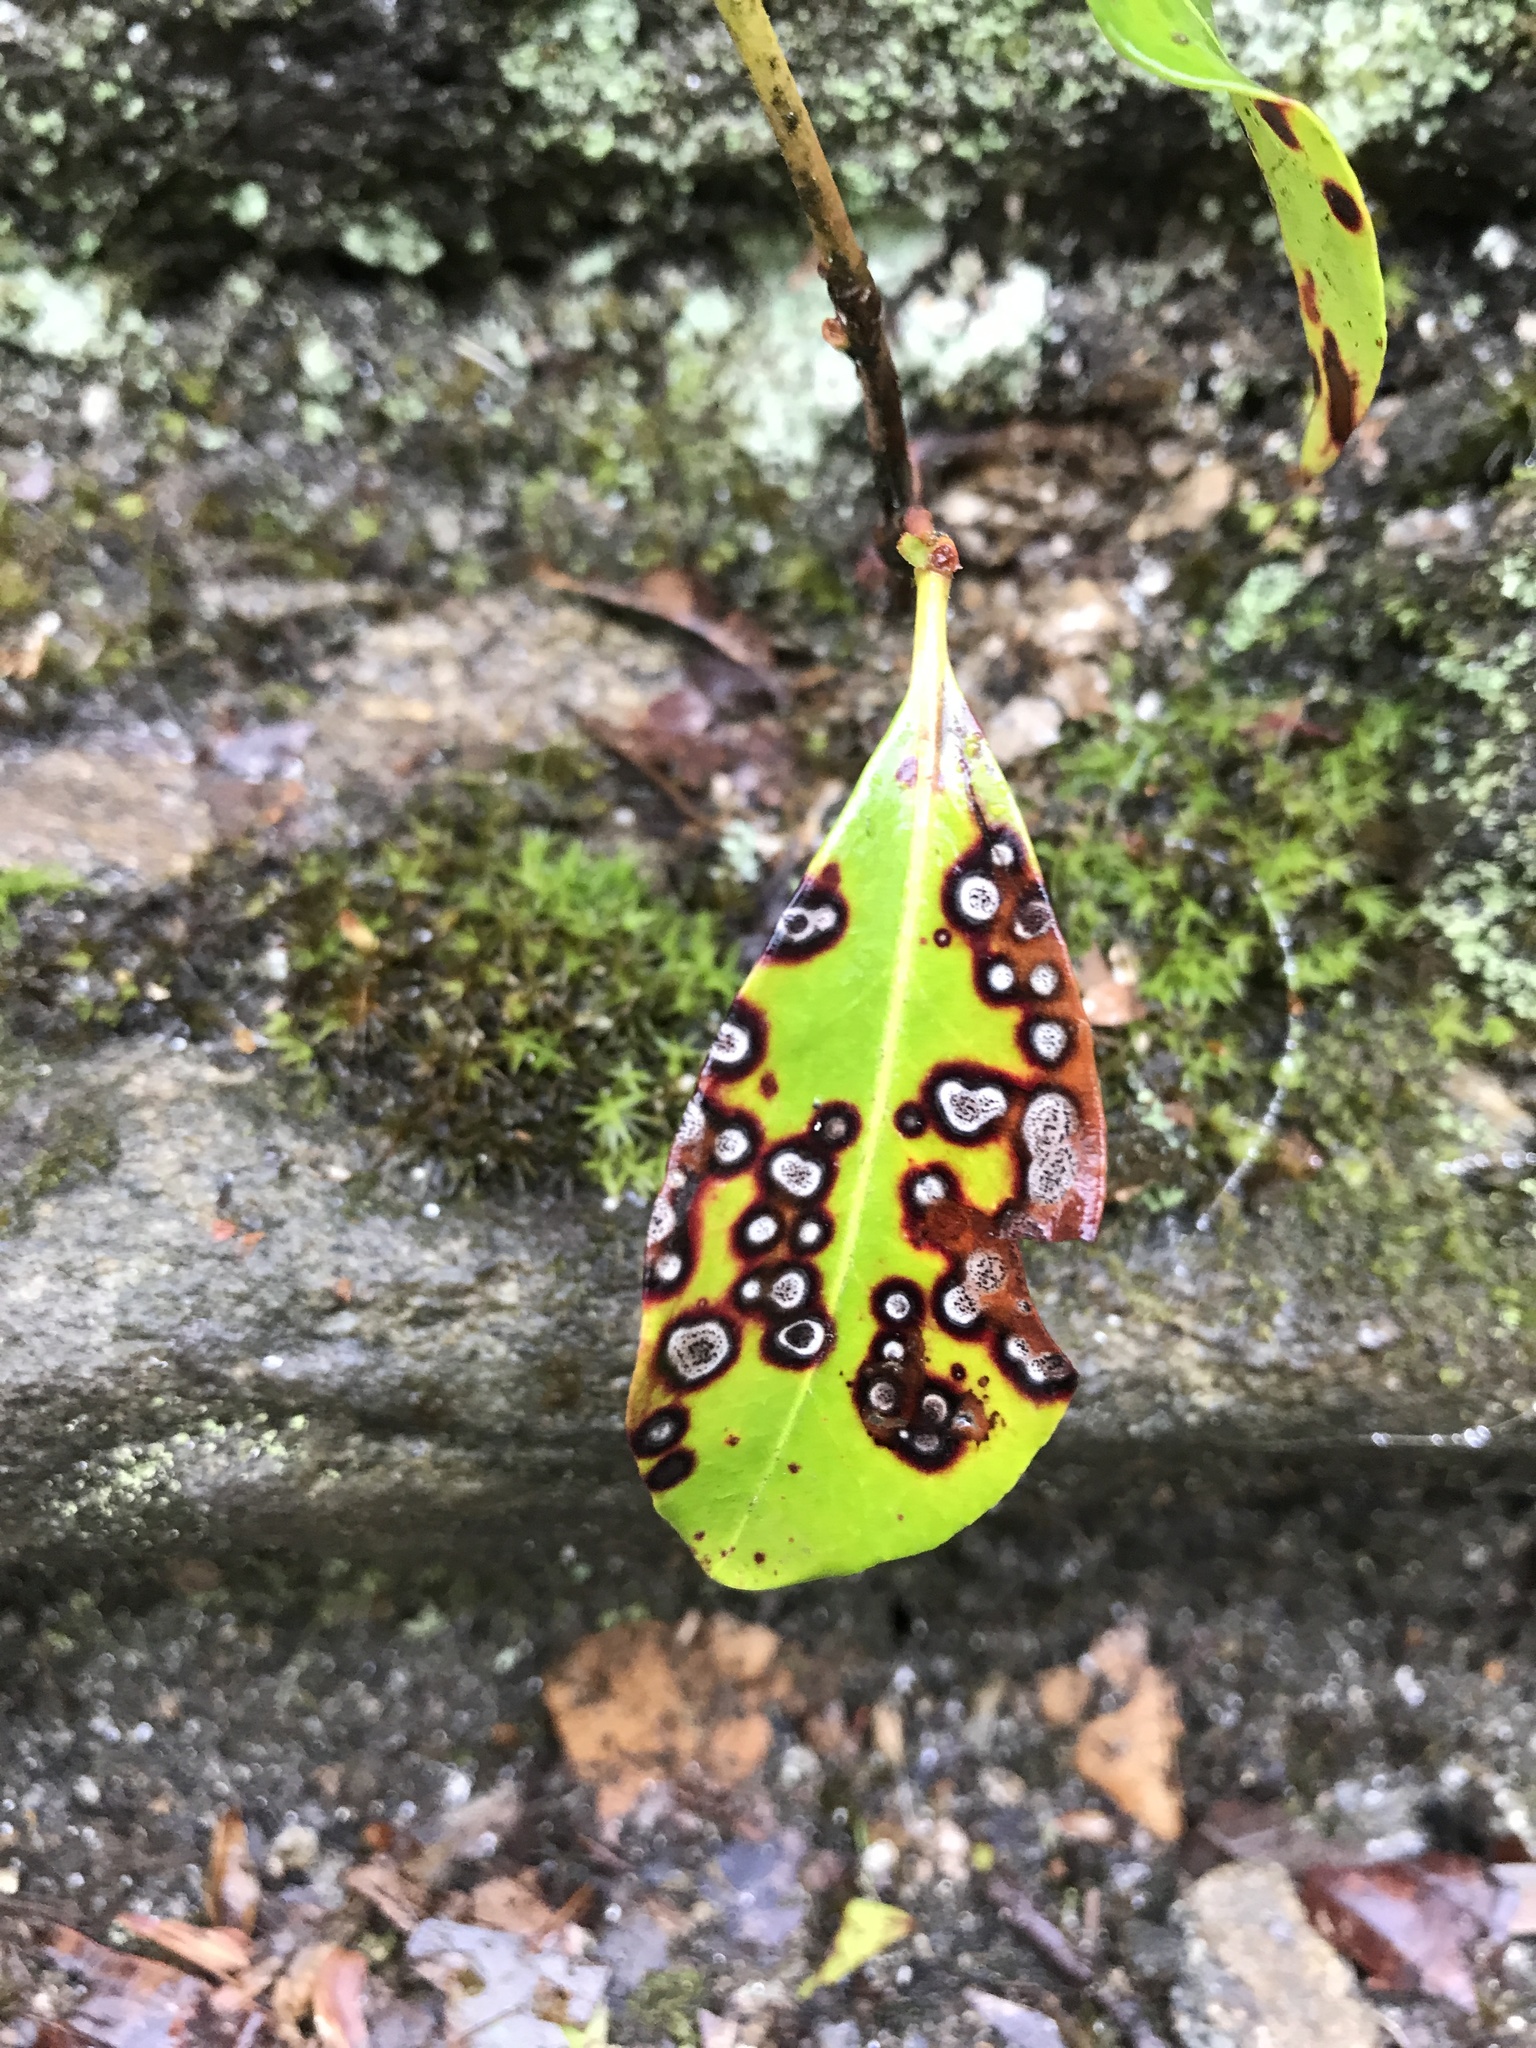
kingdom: Fungi
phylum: Ascomycota
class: Dothideomycetes
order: Mycosphaerellales
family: Mycosphaerellaceae
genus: Mycosphaerella
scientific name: Mycosphaerella colorata
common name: Mountain laurel leaf spot
